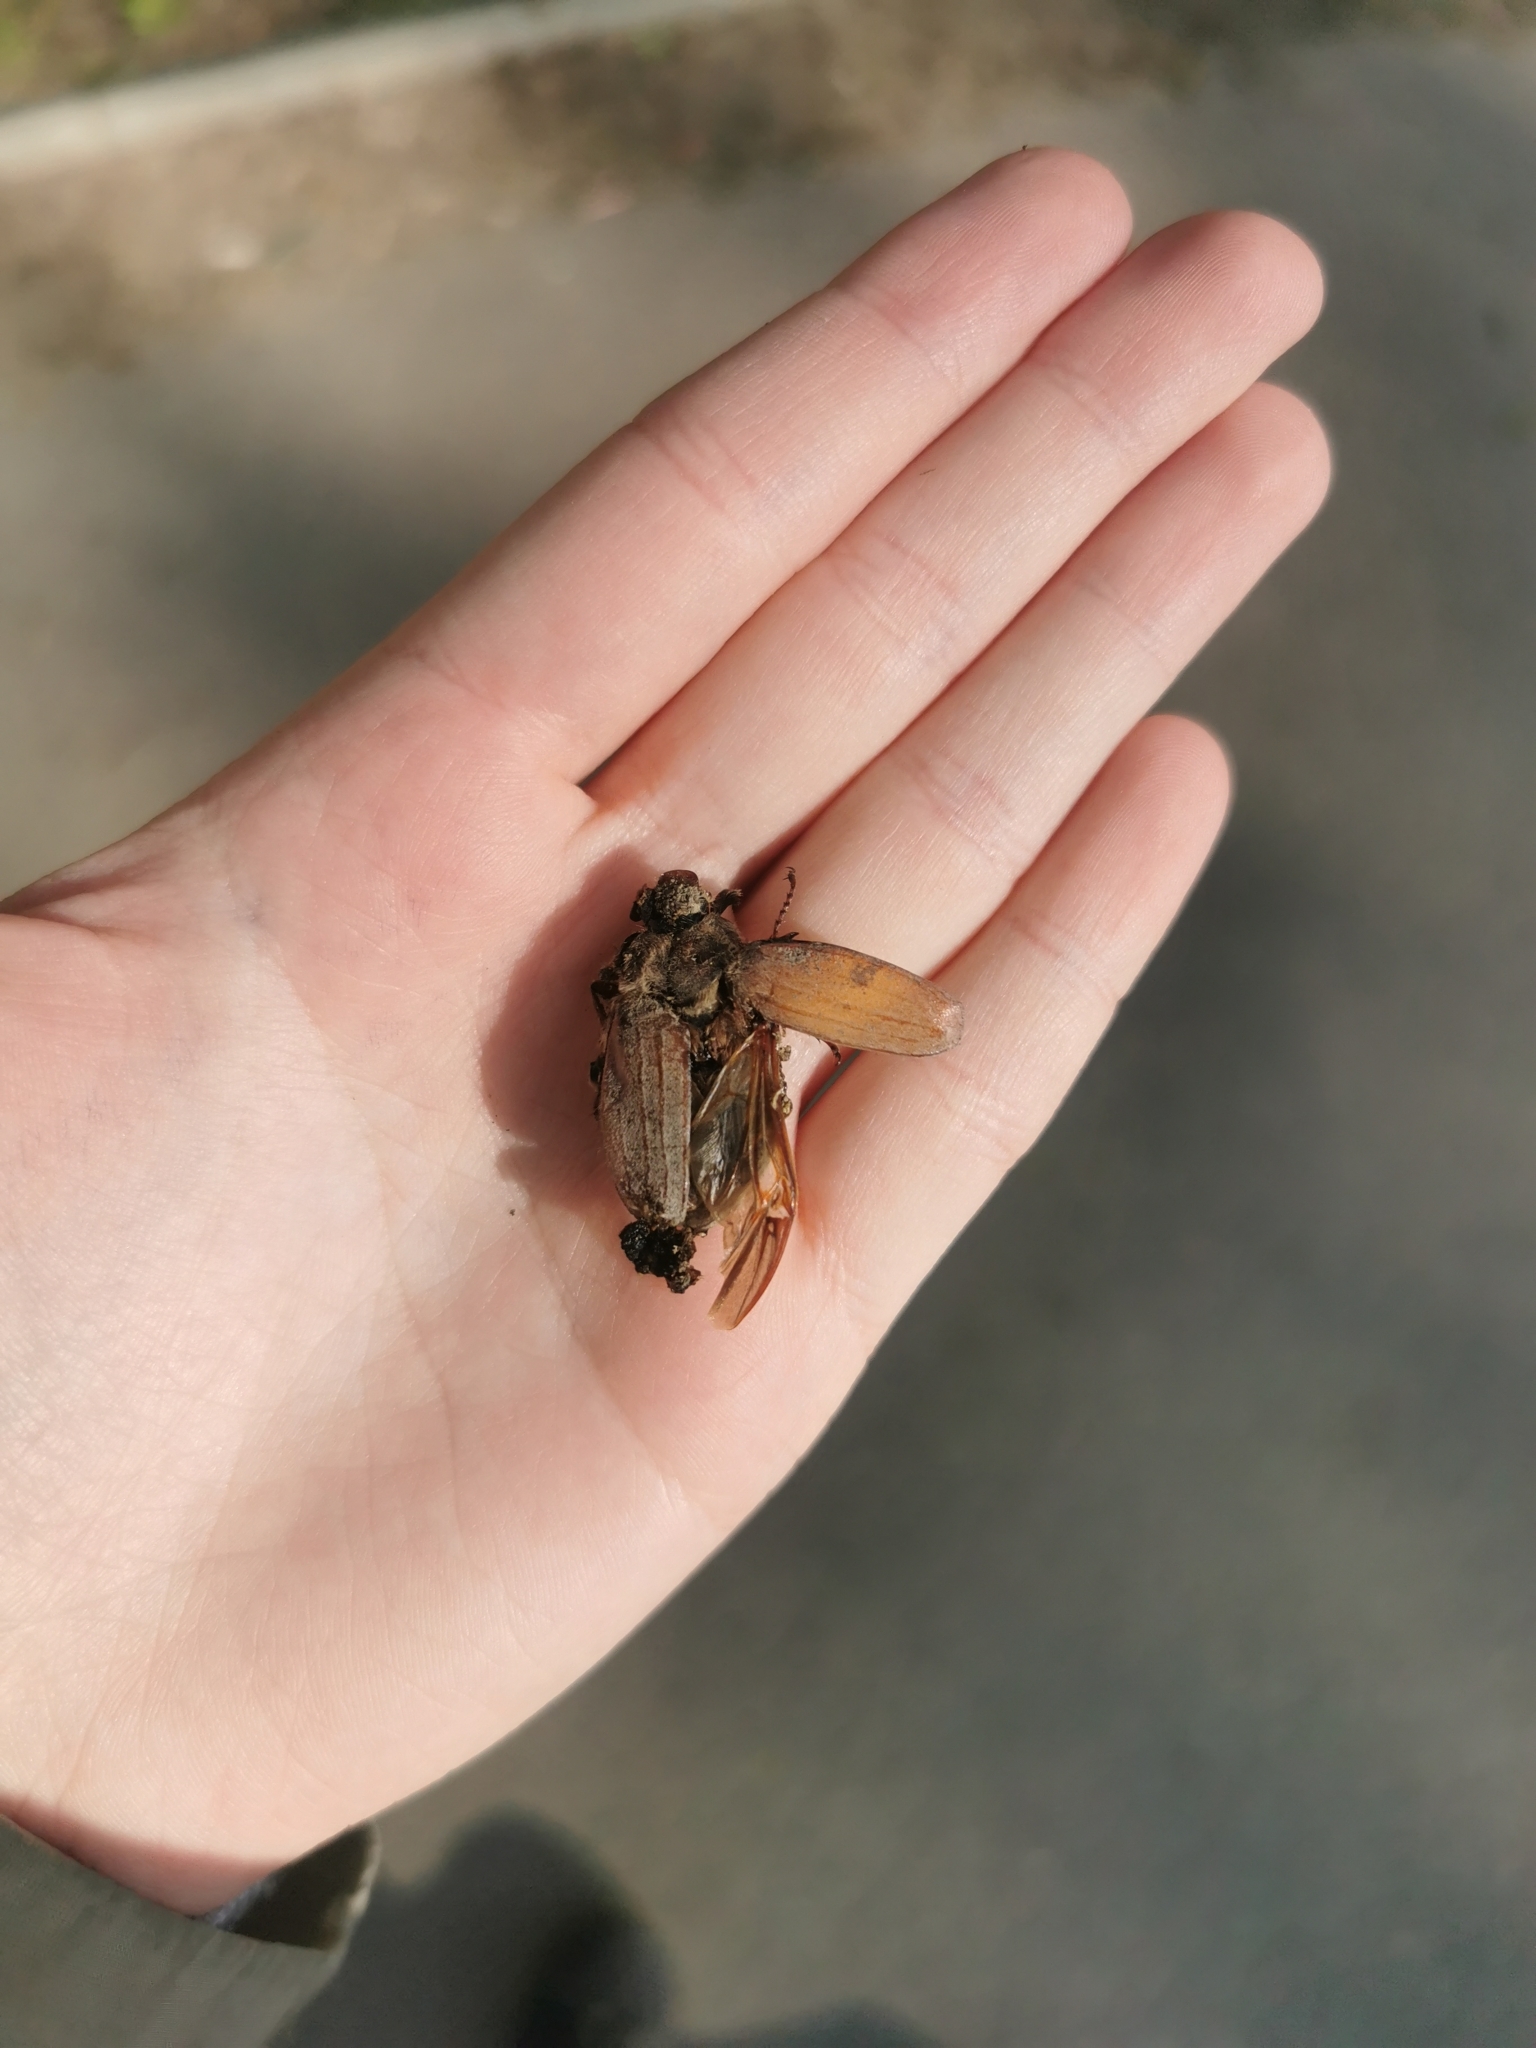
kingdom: Animalia
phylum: Arthropoda
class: Insecta
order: Coleoptera
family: Scarabaeidae
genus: Melolontha
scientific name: Melolontha hippocastani
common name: Chestnut cockchafer
